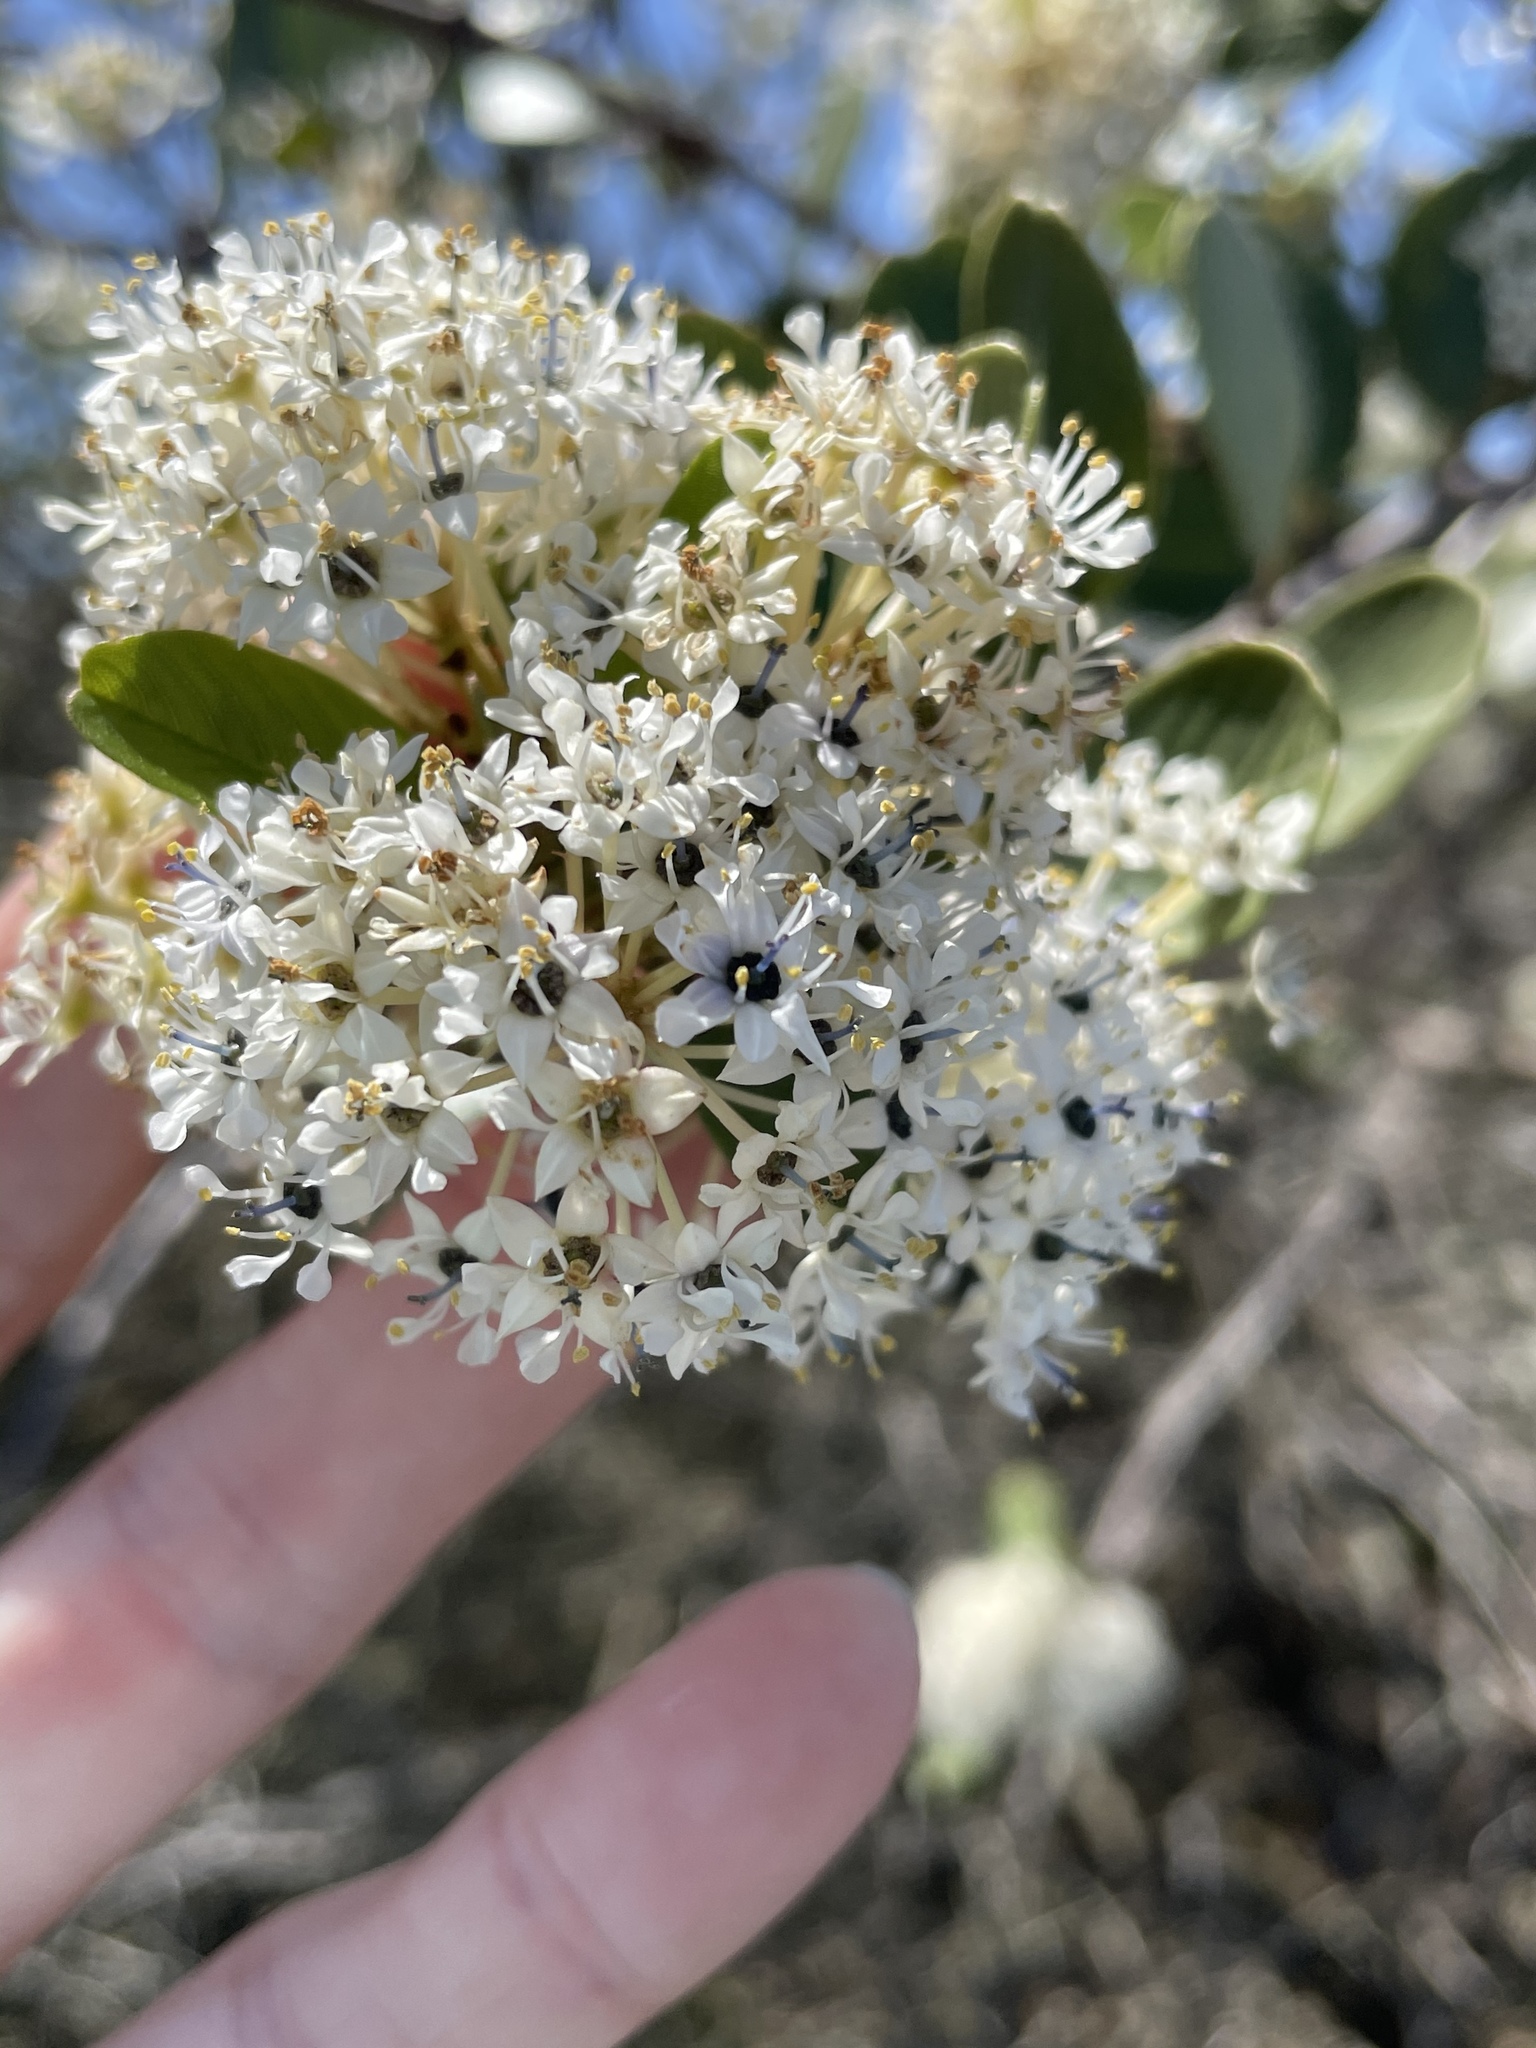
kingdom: Plantae
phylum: Tracheophyta
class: Magnoliopsida
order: Rosales
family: Rhamnaceae
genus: Ceanothus
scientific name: Ceanothus megacarpus
